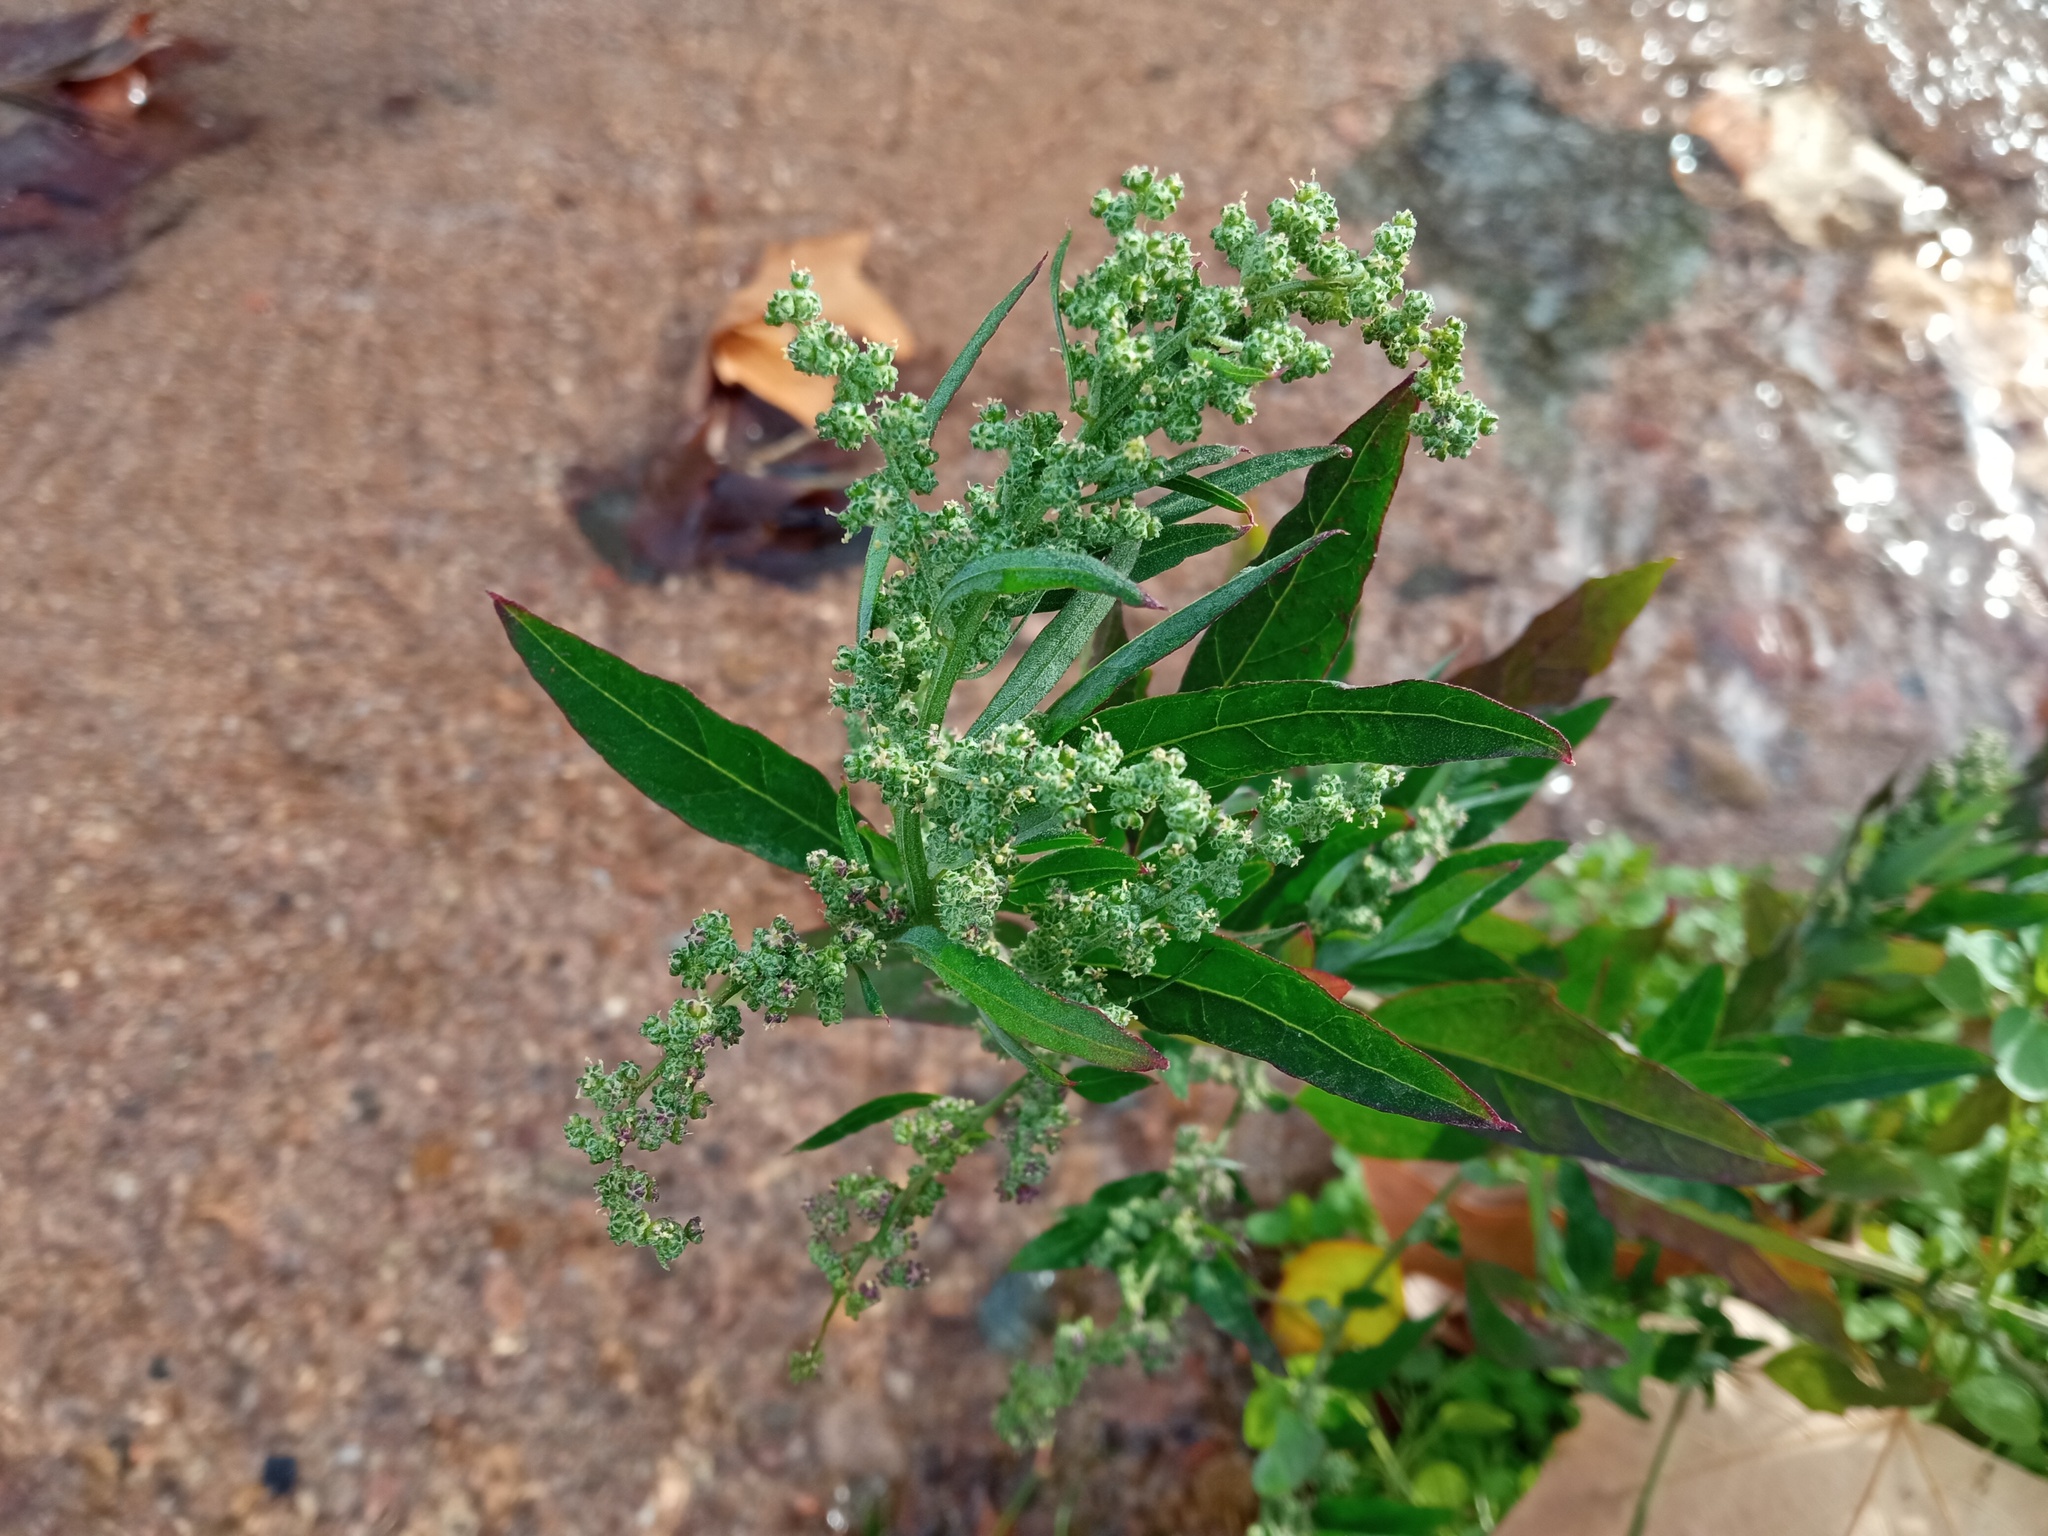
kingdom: Plantae
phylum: Tracheophyta
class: Magnoliopsida
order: Caryophyllales
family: Amaranthaceae
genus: Chenopodium
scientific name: Chenopodium album
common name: Fat-hen
